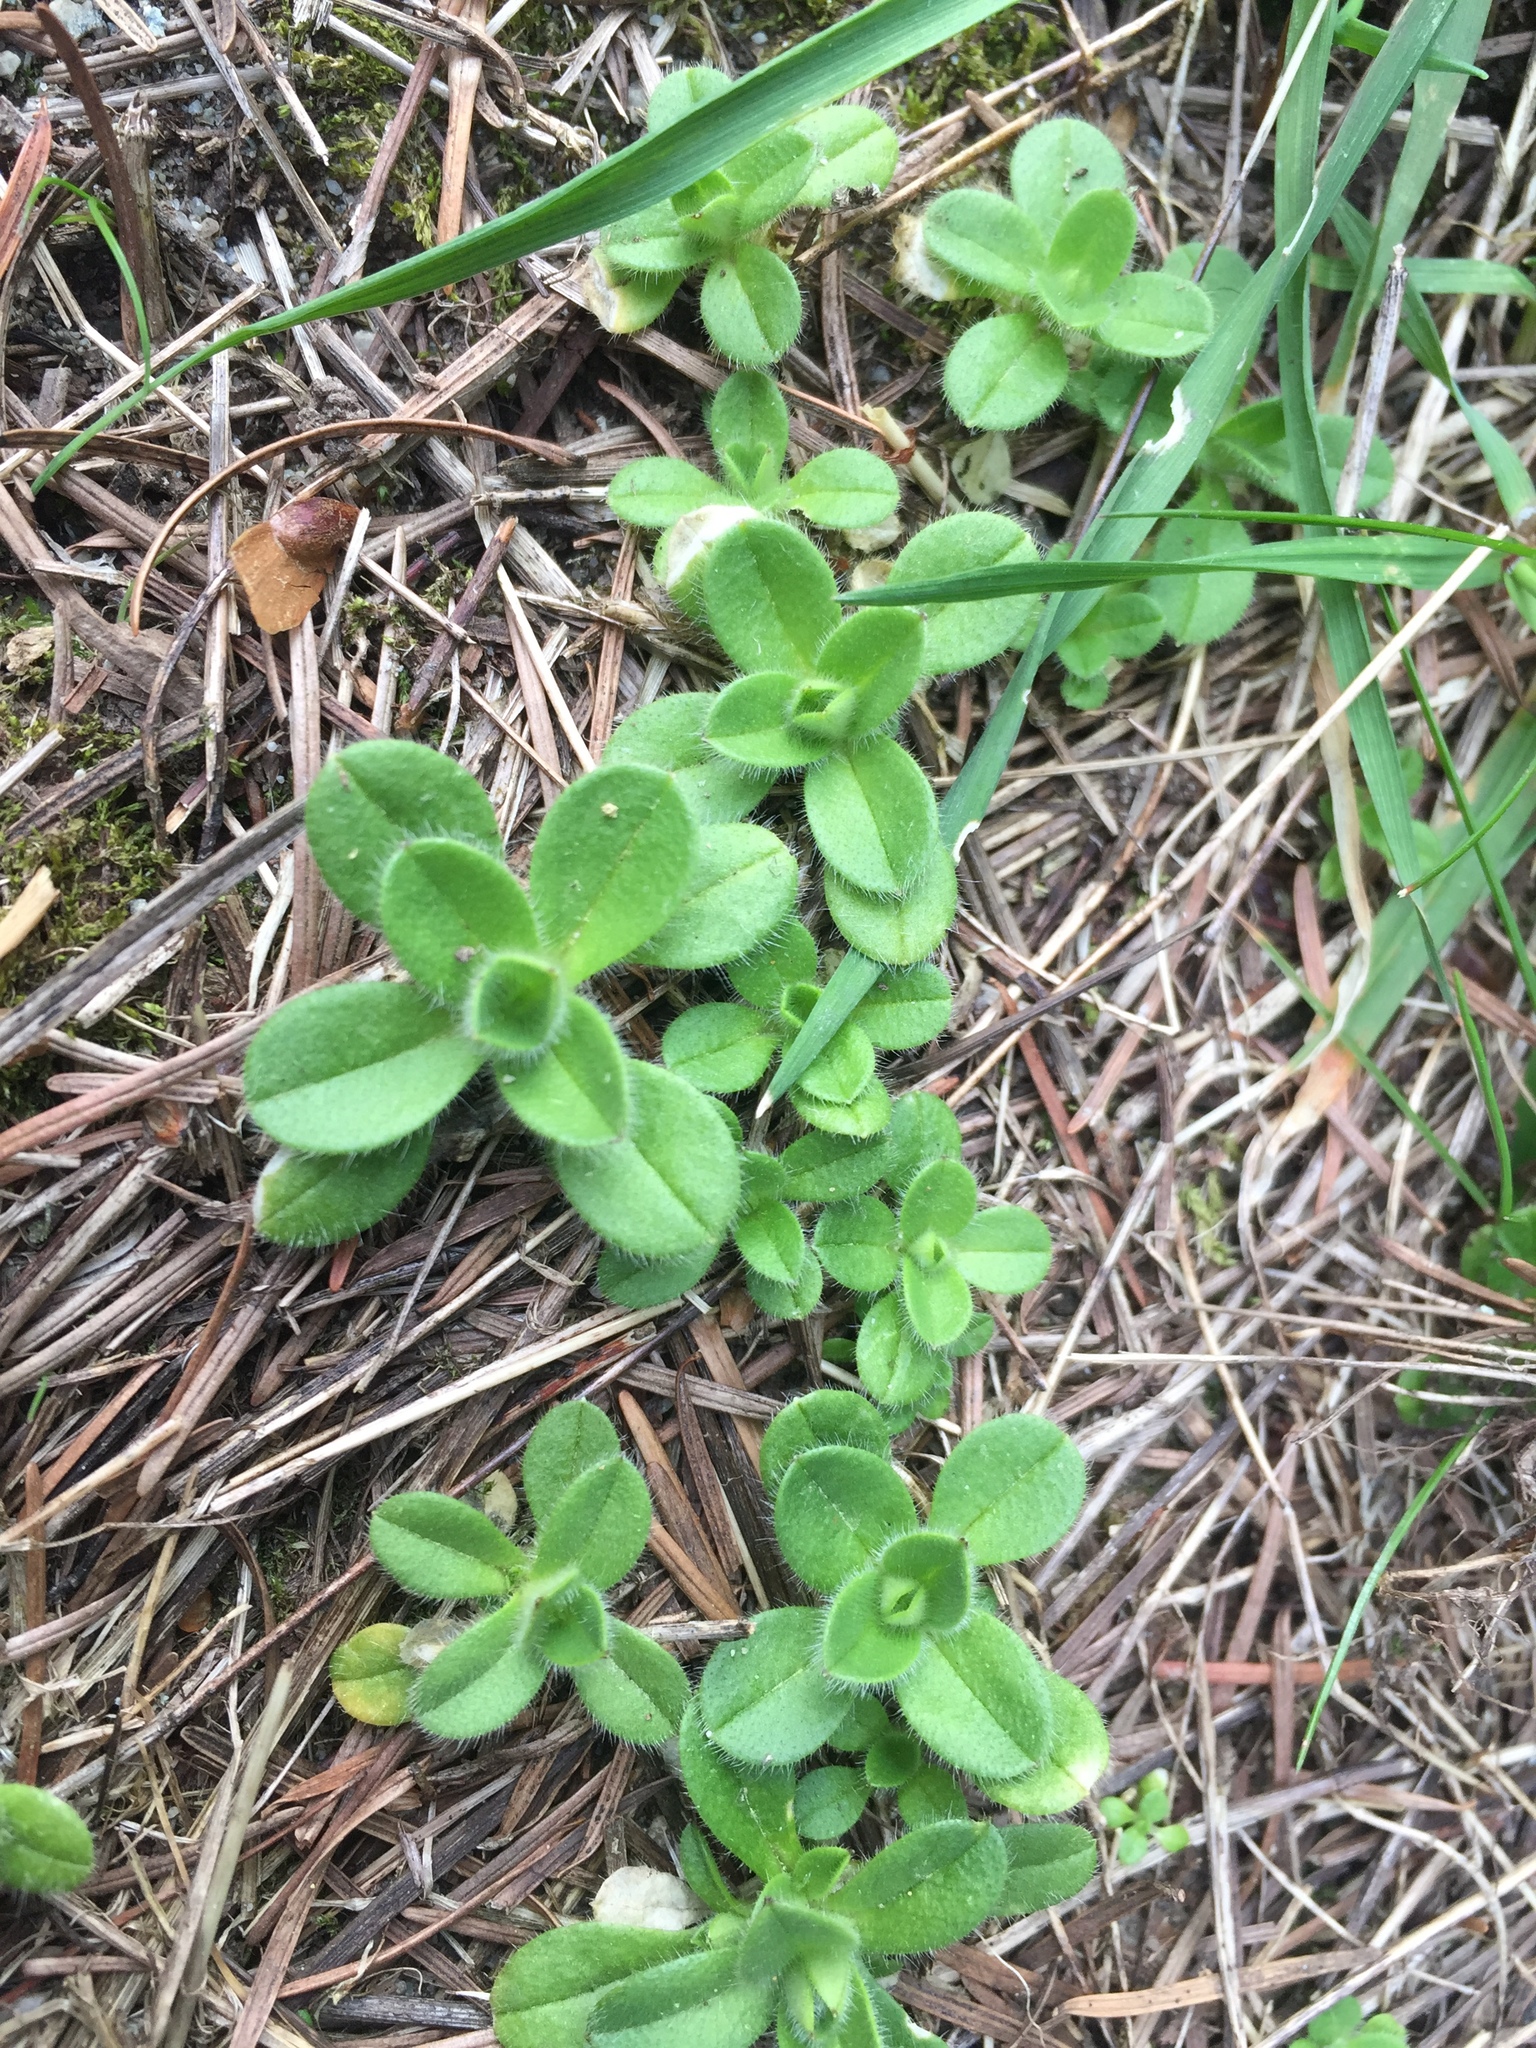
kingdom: Plantae
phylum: Tracheophyta
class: Magnoliopsida
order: Caryophyllales
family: Caryophyllaceae
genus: Cerastium
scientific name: Cerastium fontanum
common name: Common mouse-ear
